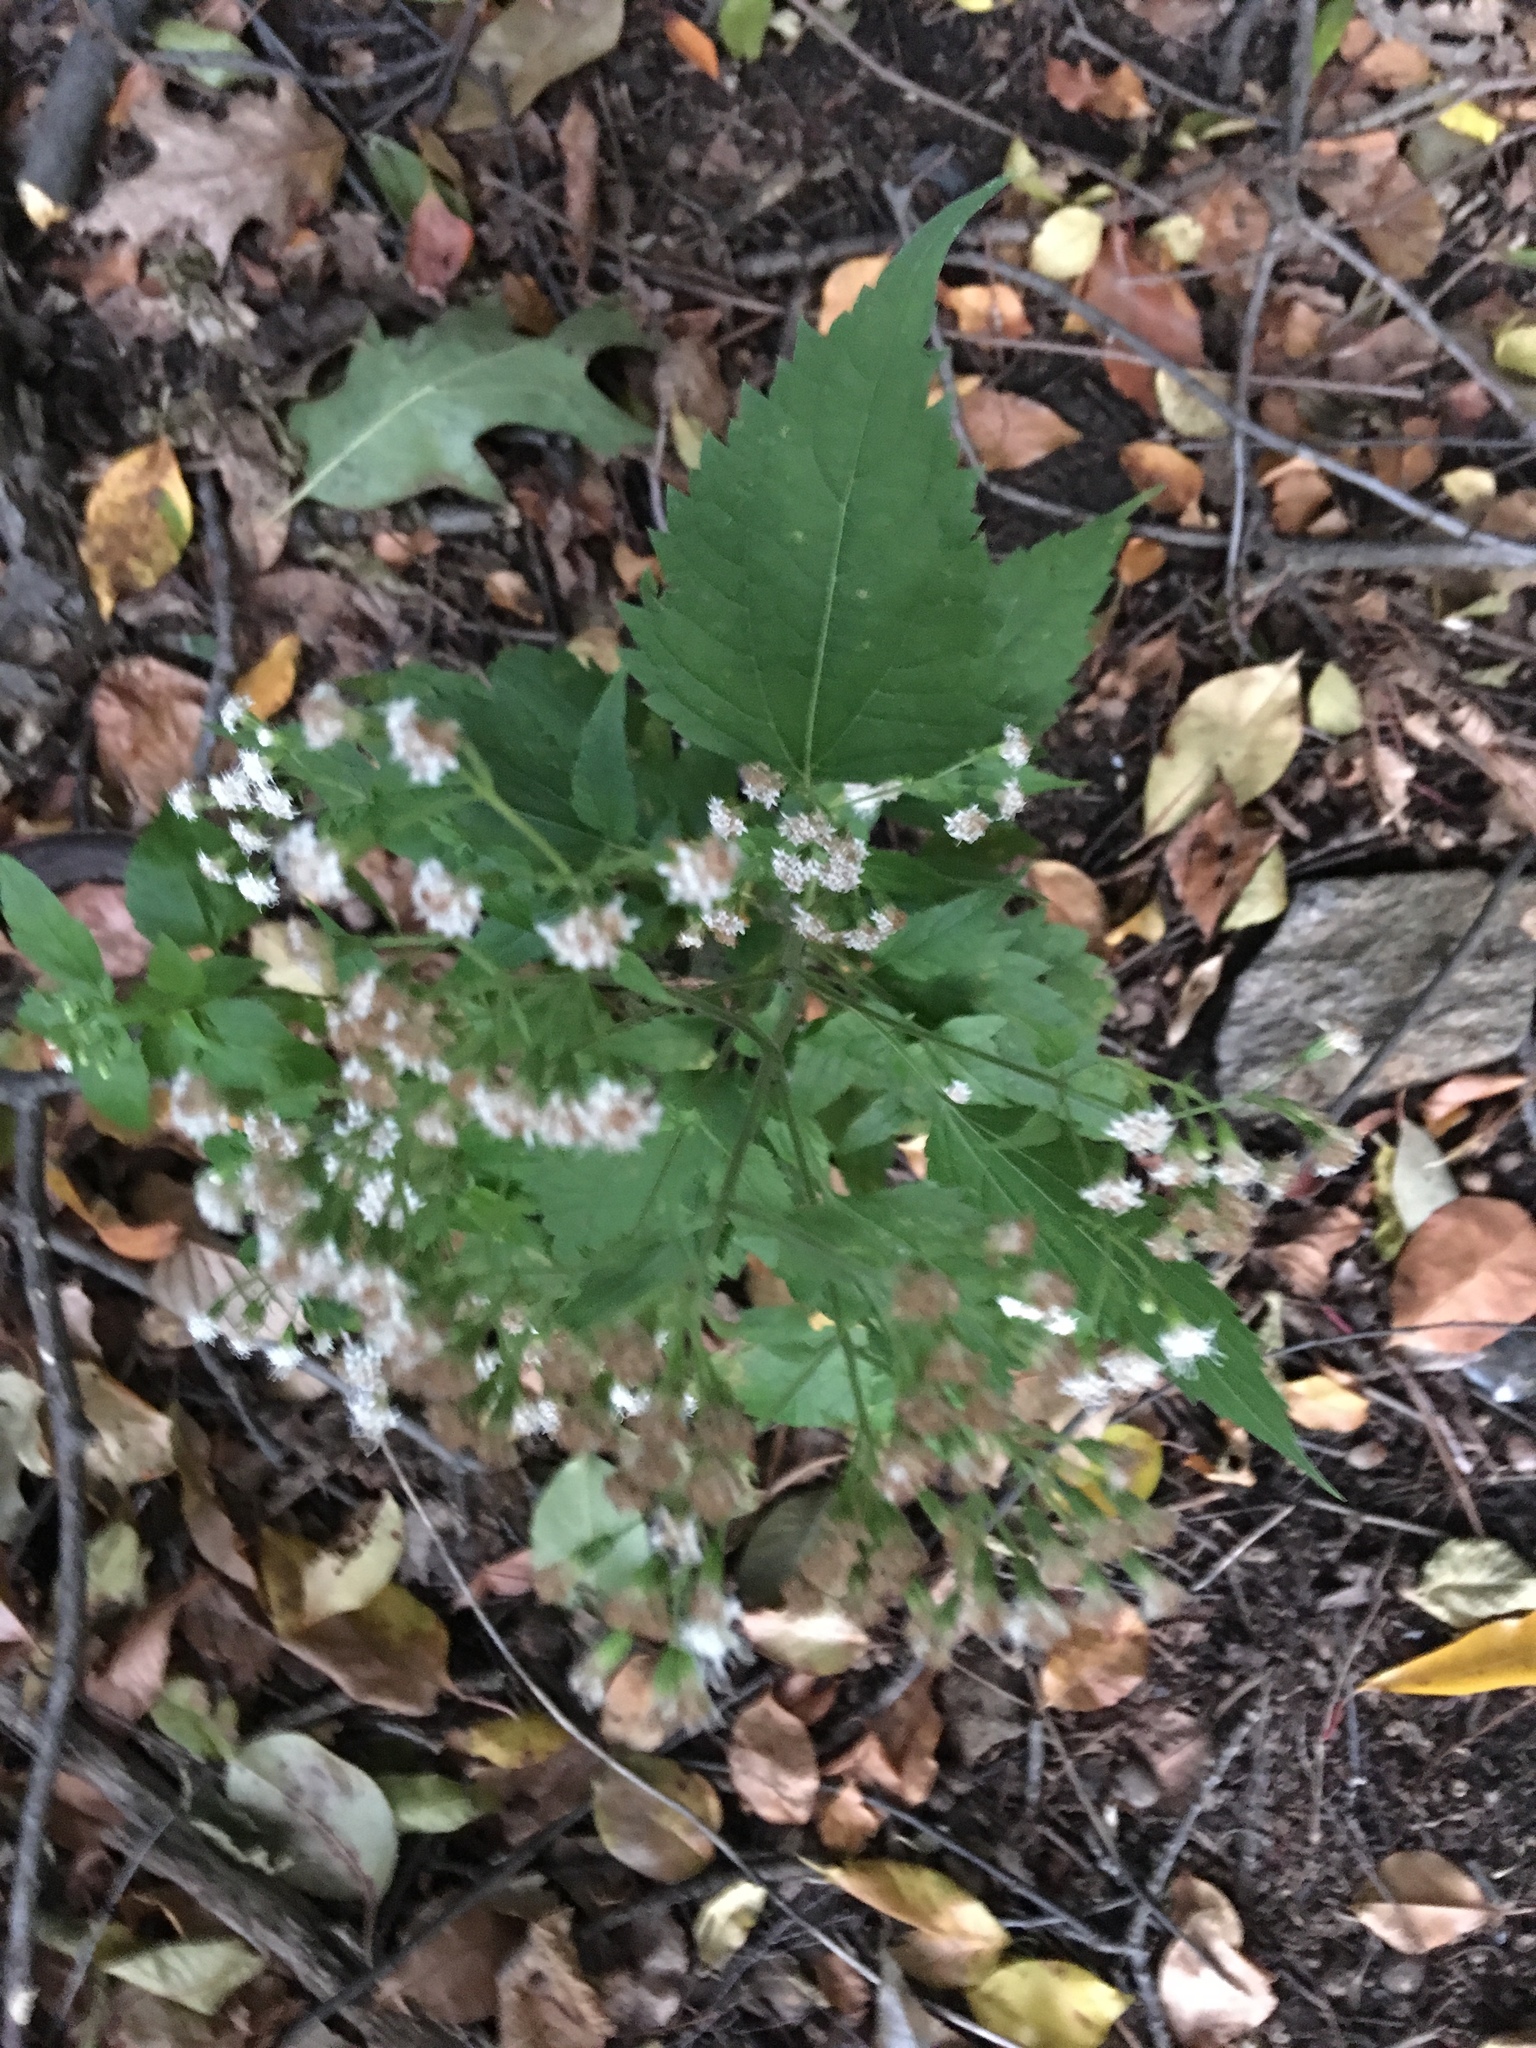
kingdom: Plantae
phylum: Tracheophyta
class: Magnoliopsida
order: Asterales
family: Asteraceae
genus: Ageratina
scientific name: Ageratina altissima
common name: White snakeroot
